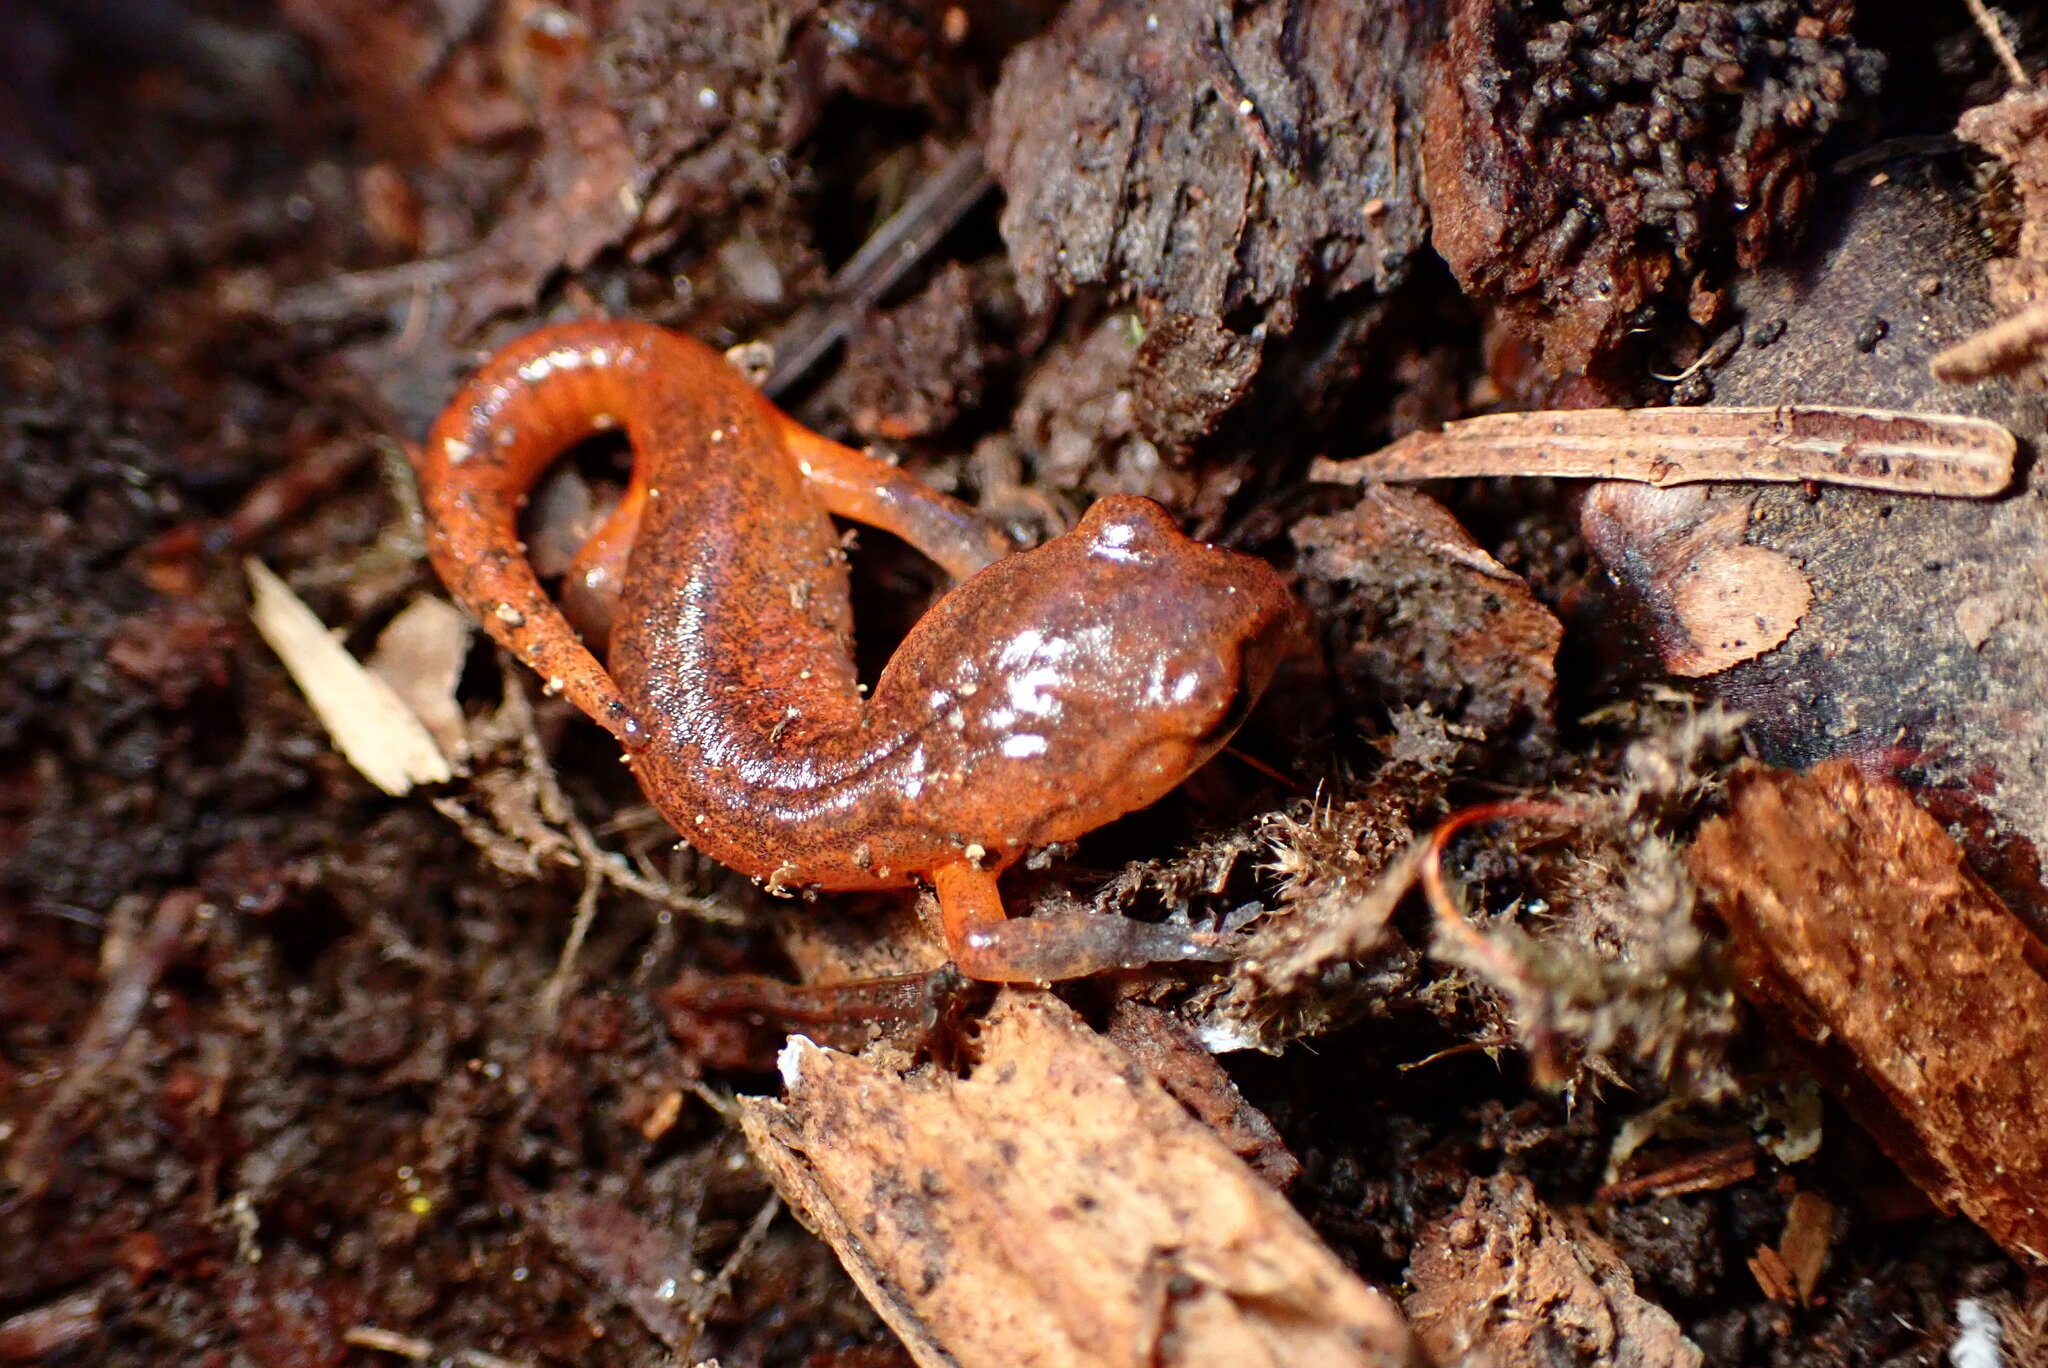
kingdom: Animalia
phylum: Chordata
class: Amphibia
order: Caudata
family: Plethodontidae
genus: Ensatina
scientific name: Ensatina eschscholtzii
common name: Ensatina
